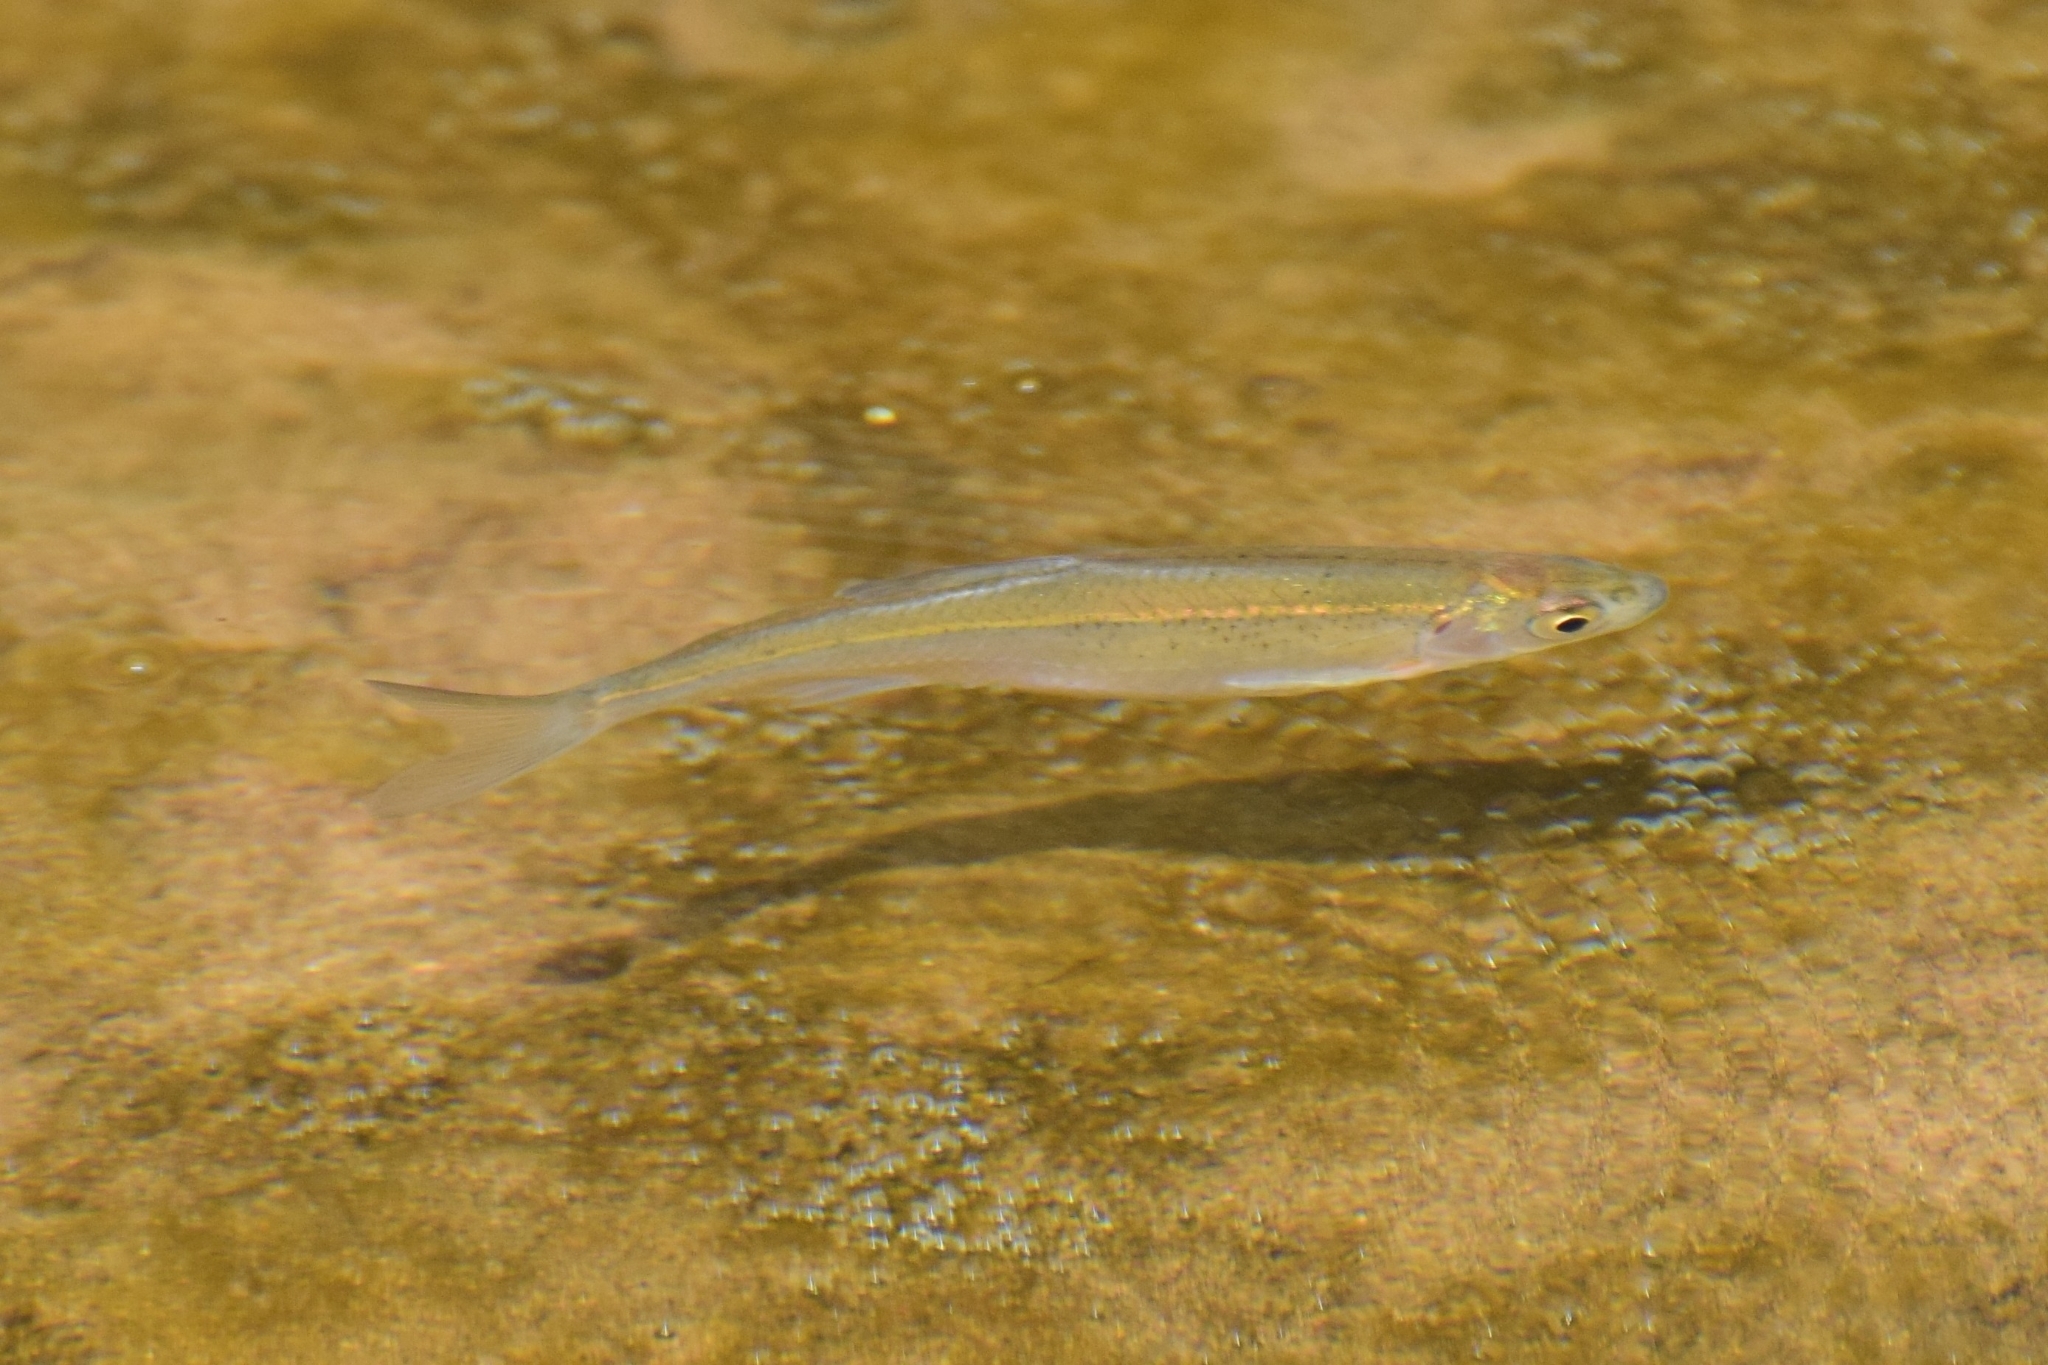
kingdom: Animalia
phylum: Chordata
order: Cypriniformes
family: Cyprinidae
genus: Alburnus
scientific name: Alburnus alburnus
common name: Bleak
